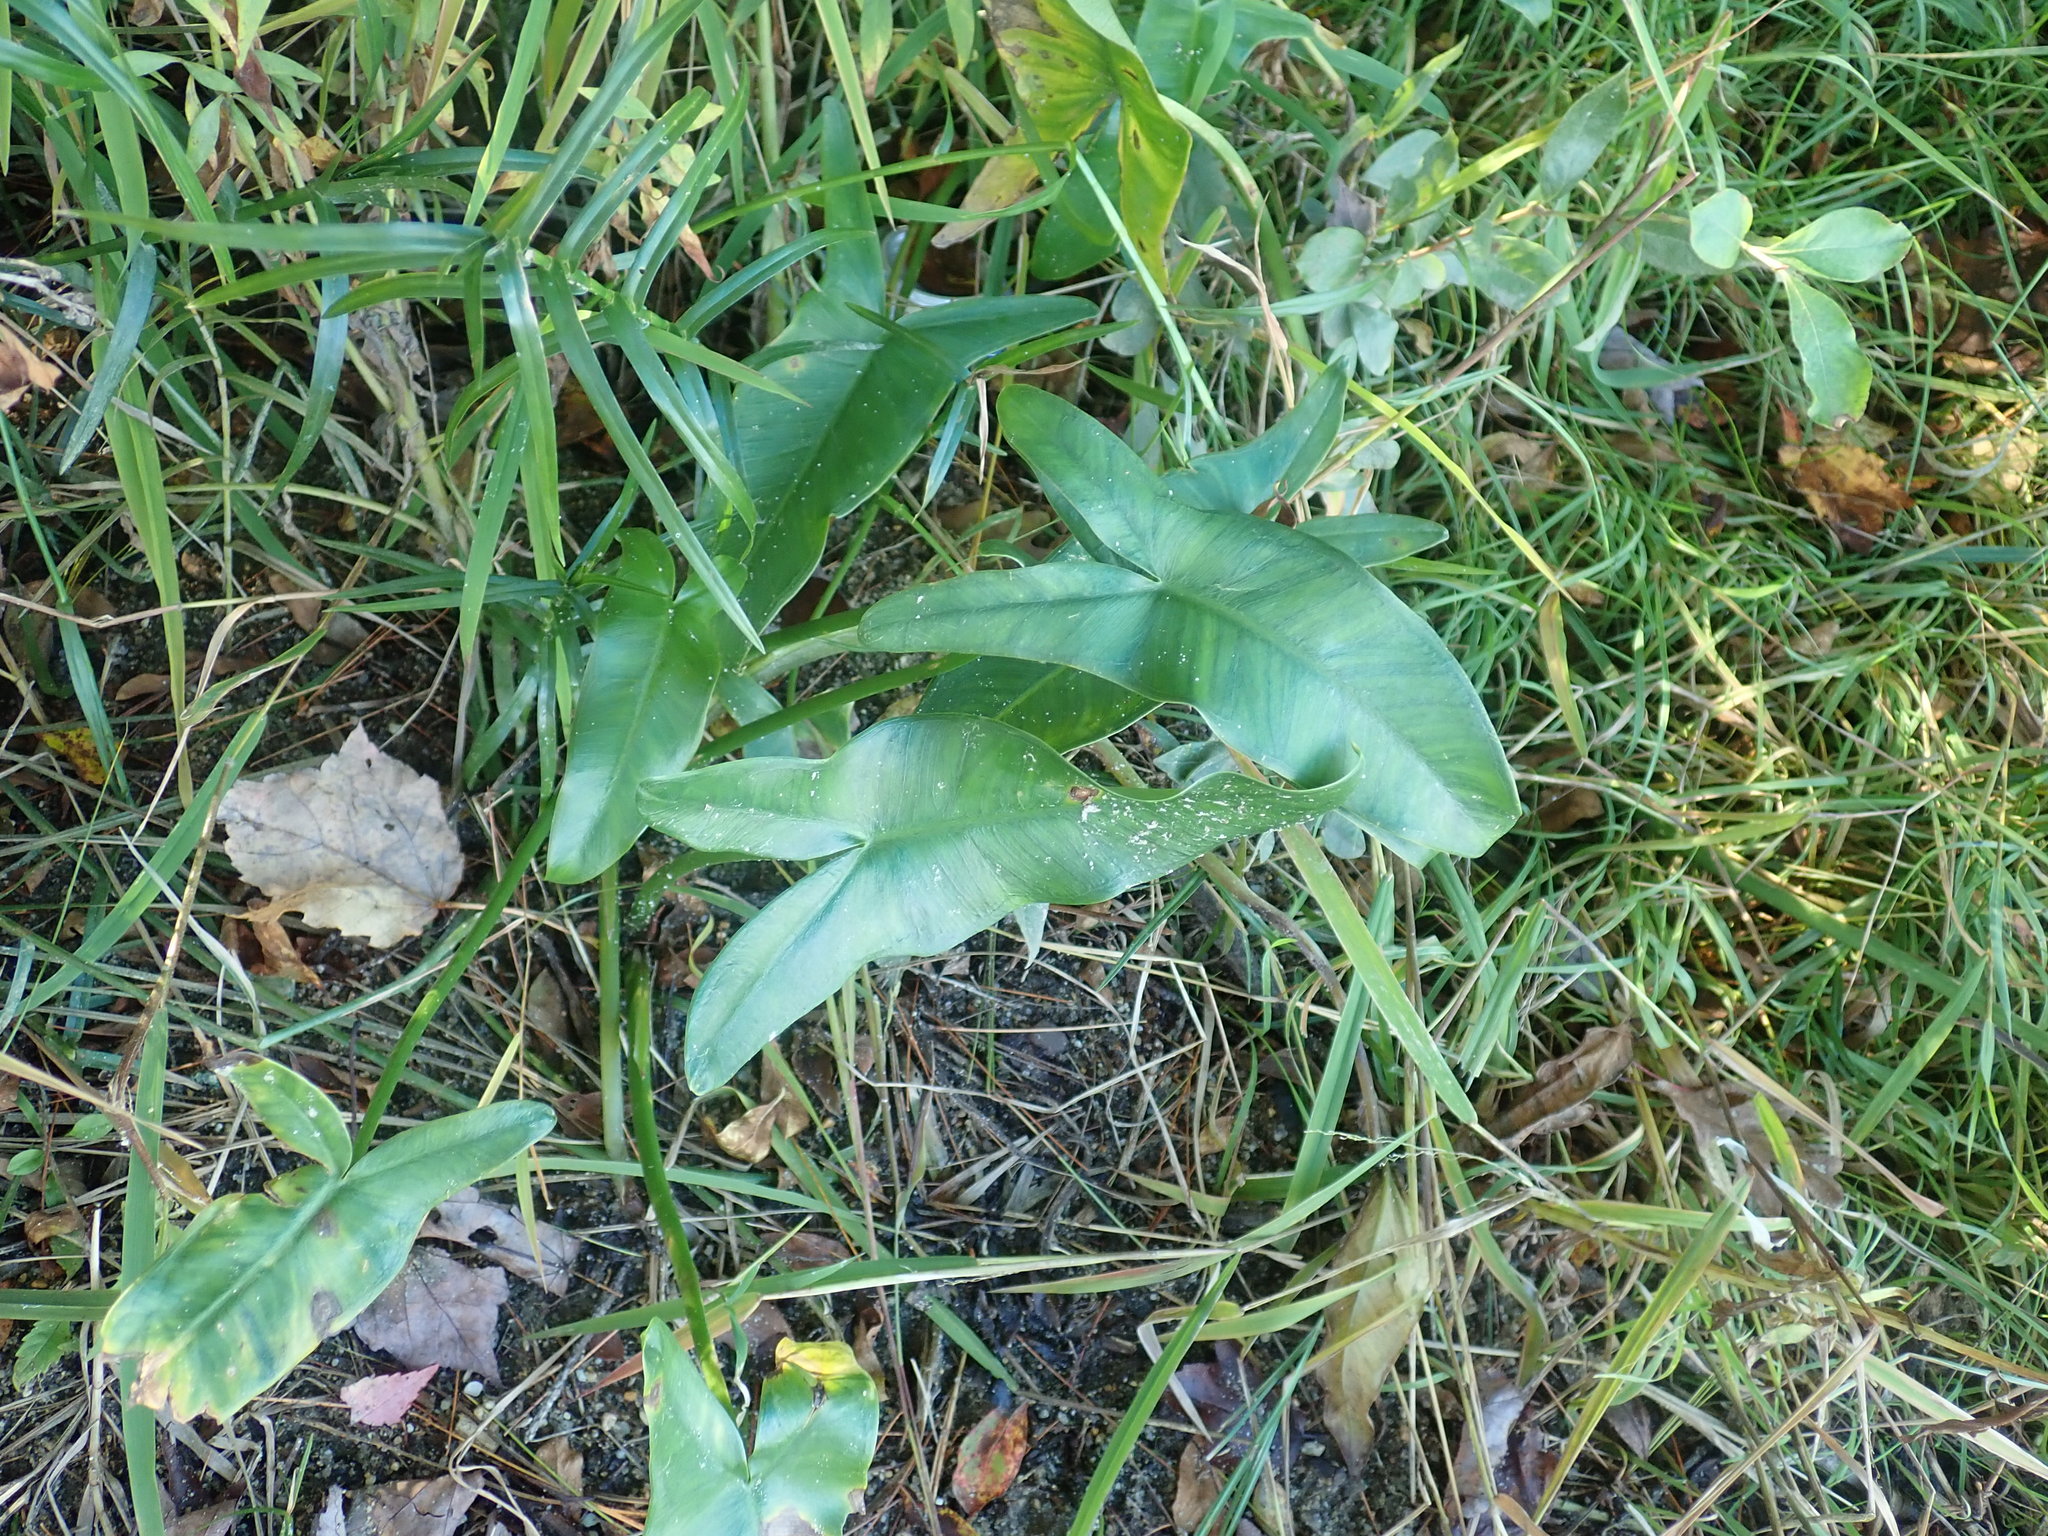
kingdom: Plantae
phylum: Tracheophyta
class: Liliopsida
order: Alismatales
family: Araceae
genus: Peltandra
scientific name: Peltandra virginica
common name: Arrow arum
